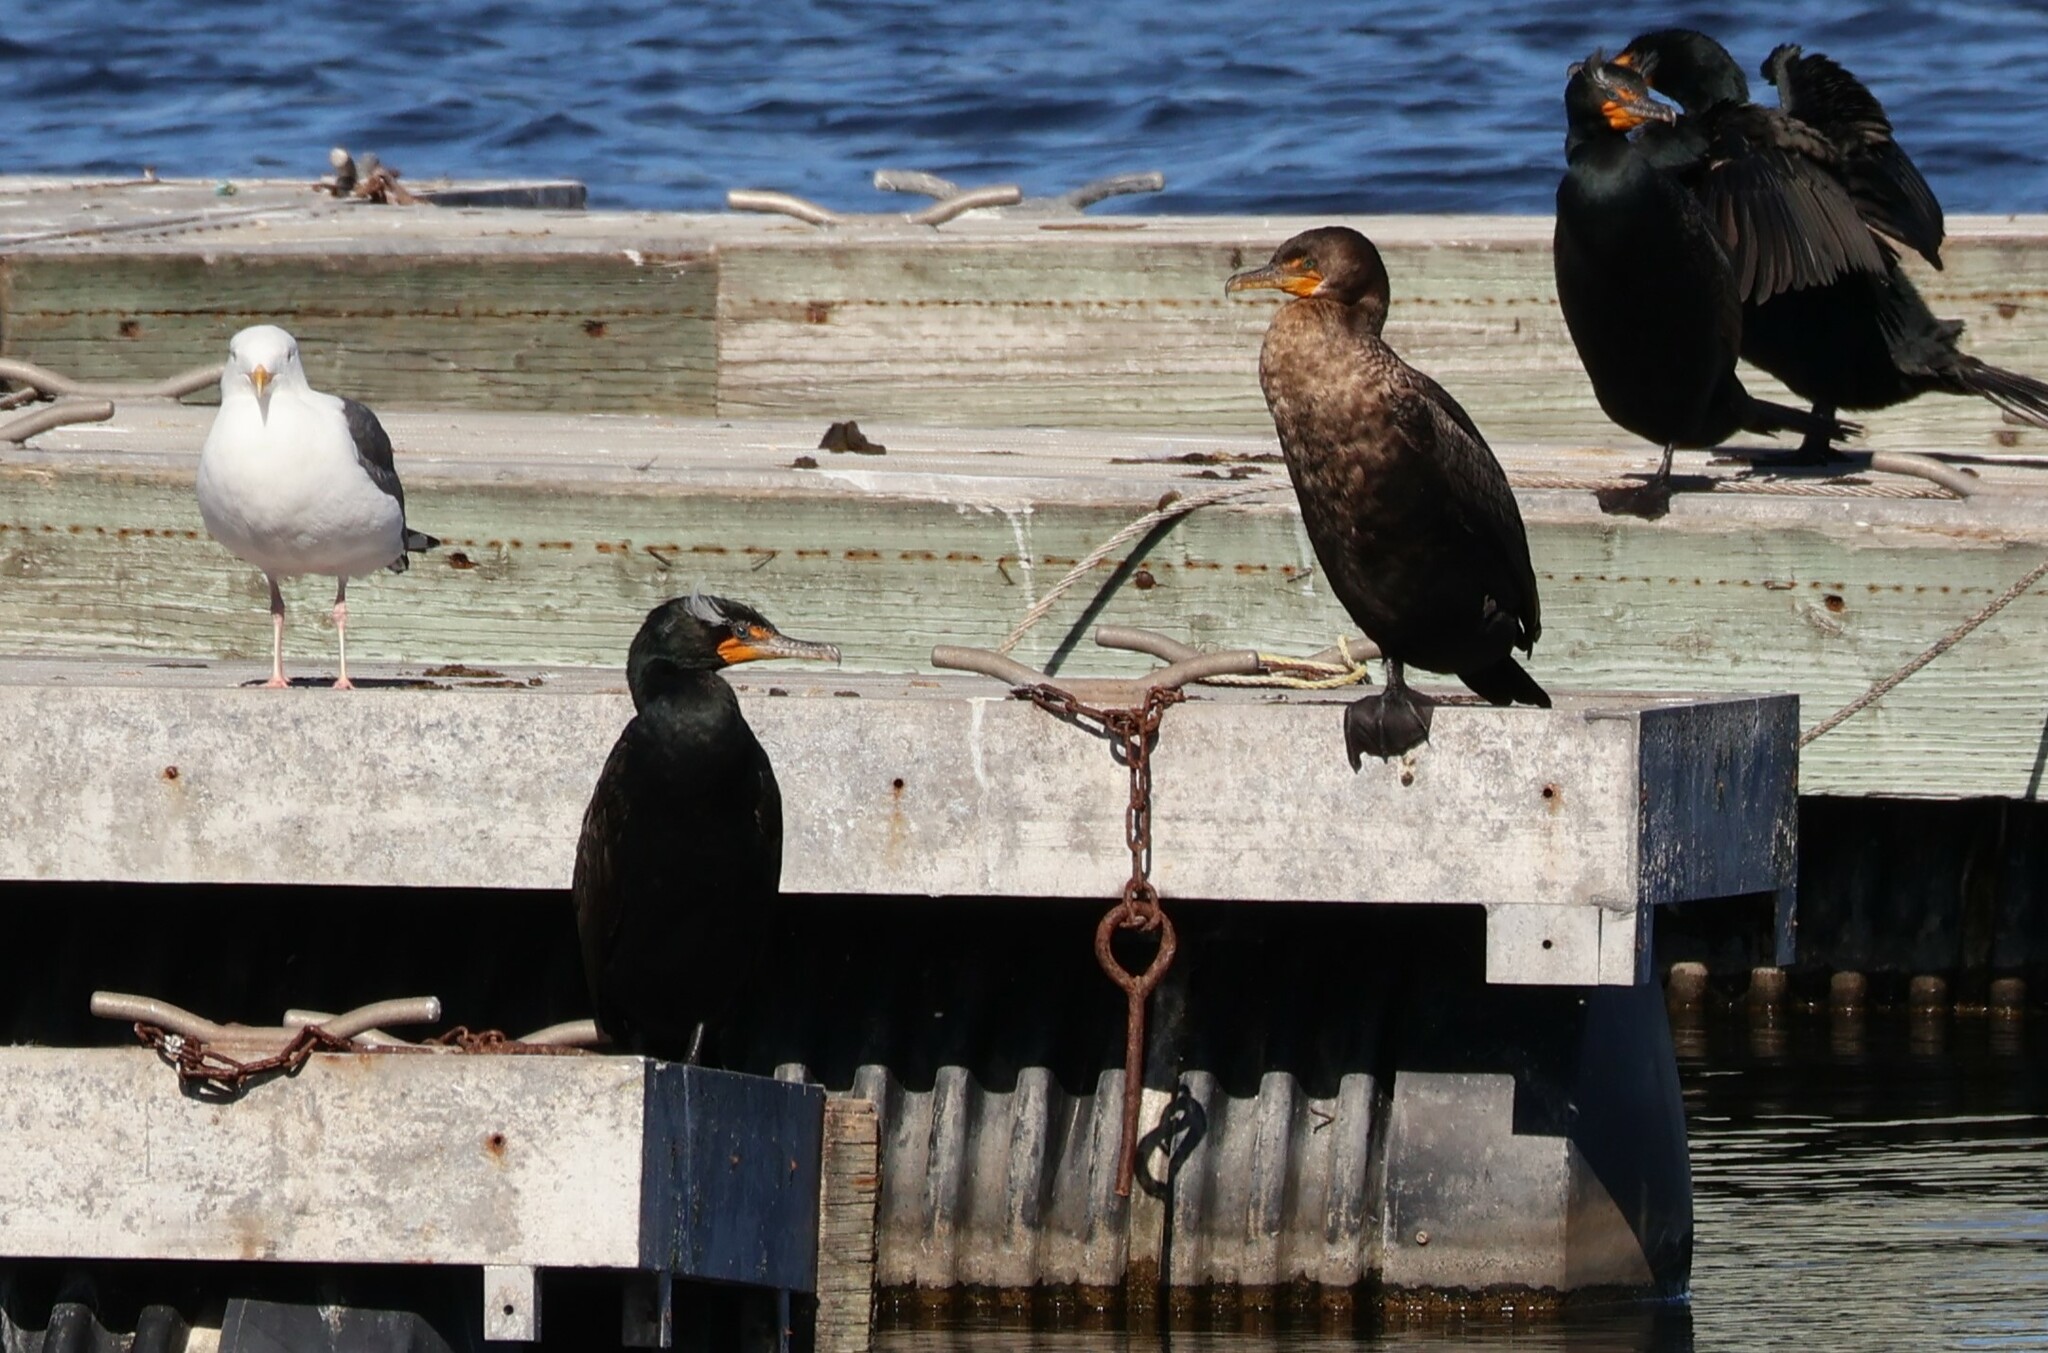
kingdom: Animalia
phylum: Chordata
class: Aves
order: Suliformes
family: Phalacrocoracidae
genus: Phalacrocorax
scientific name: Phalacrocorax auritus
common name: Double-crested cormorant
